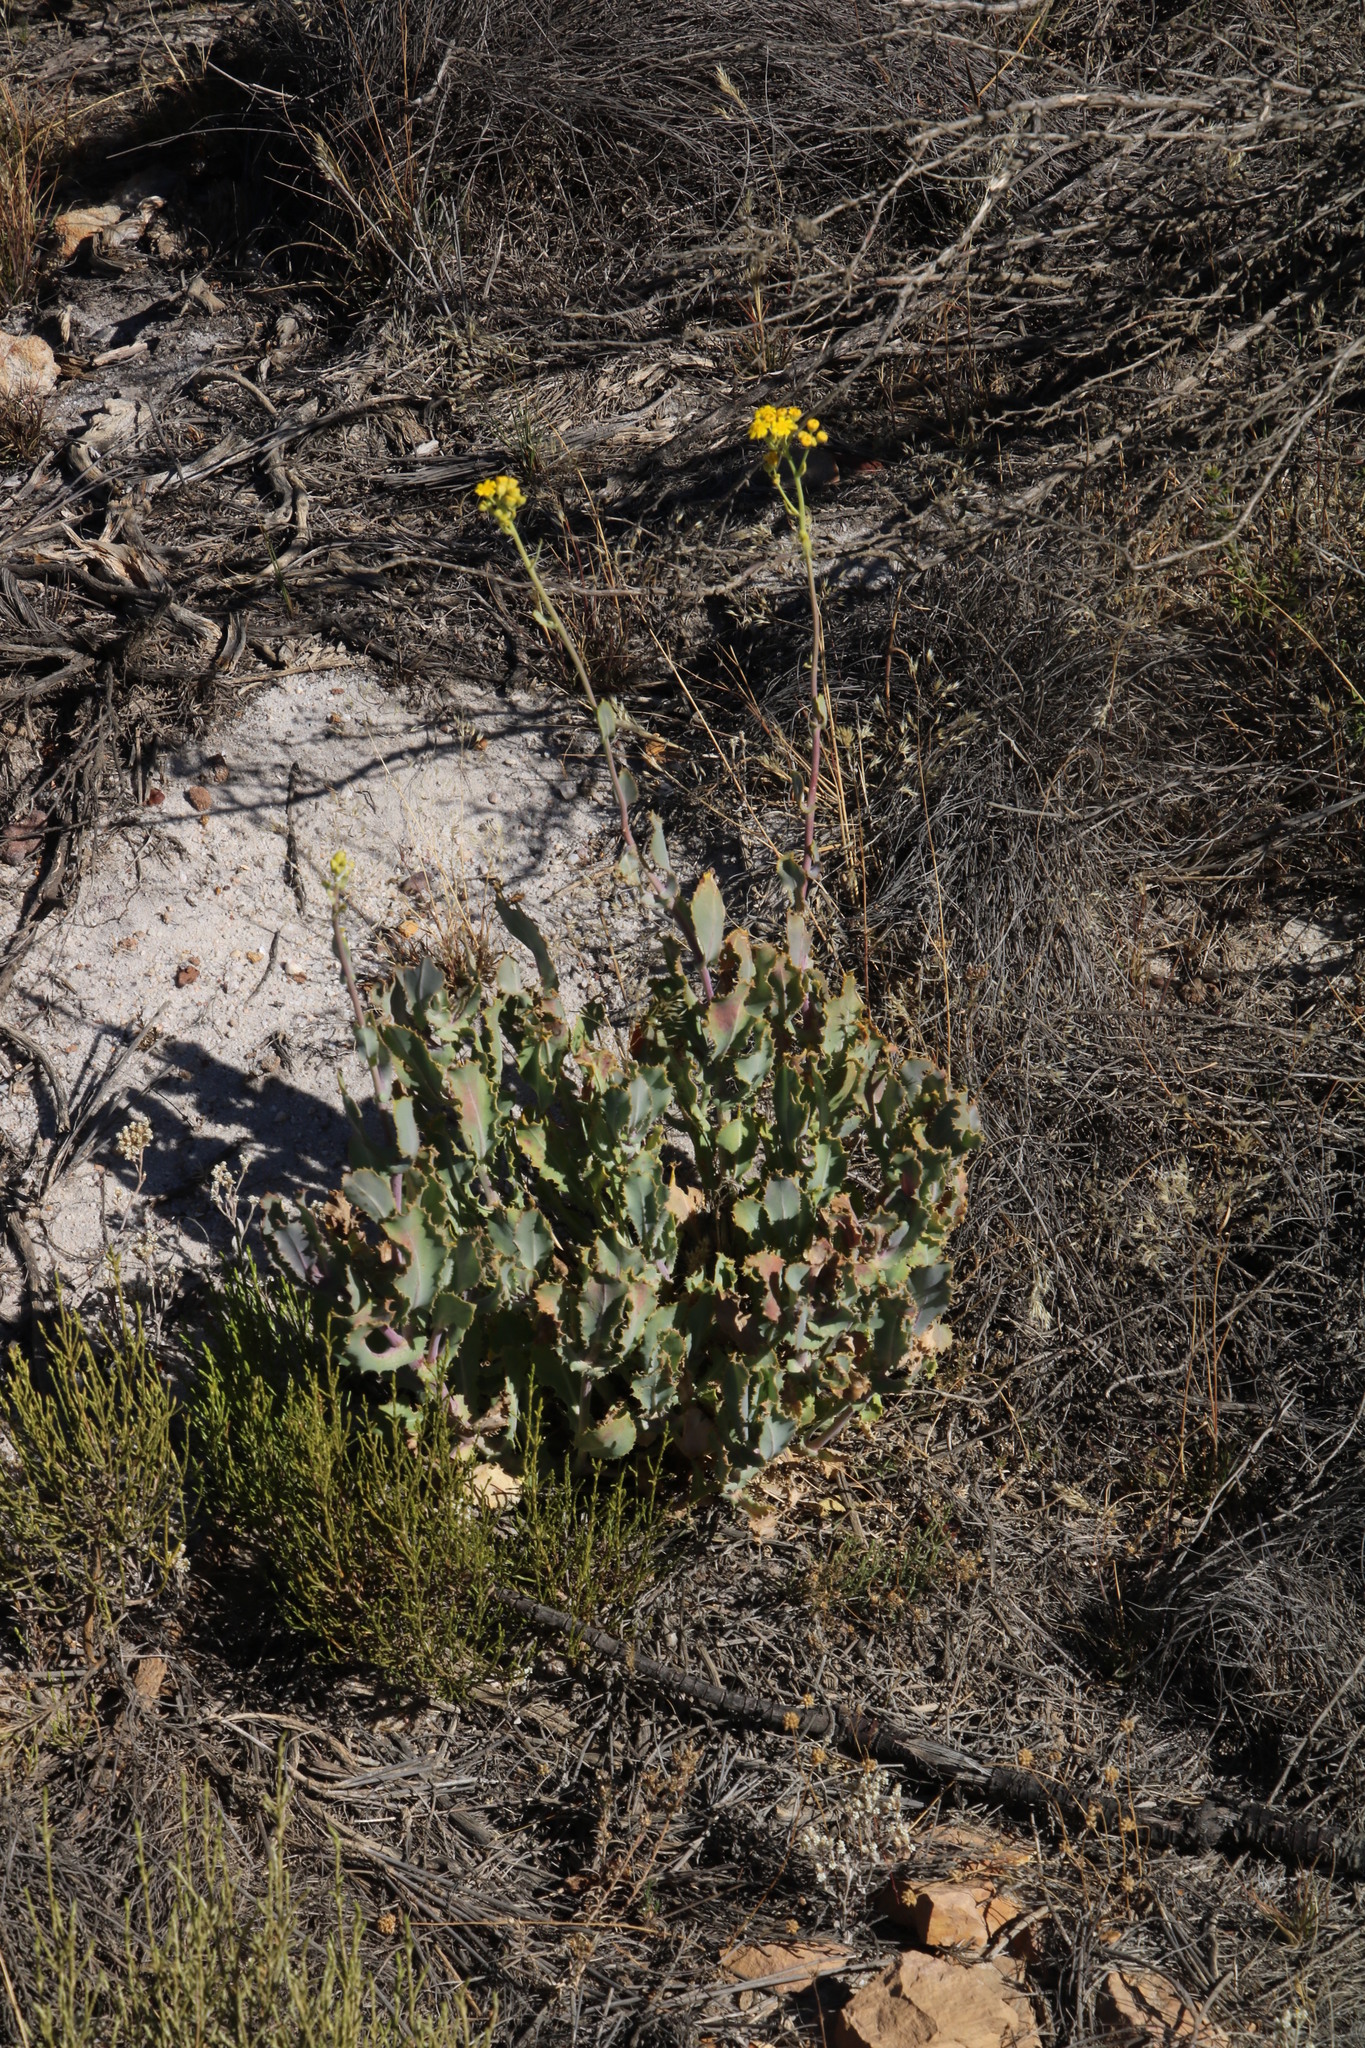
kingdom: Plantae
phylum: Tracheophyta
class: Magnoliopsida
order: Asterales
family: Asteraceae
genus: Othonna
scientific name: Othonna parviflora
